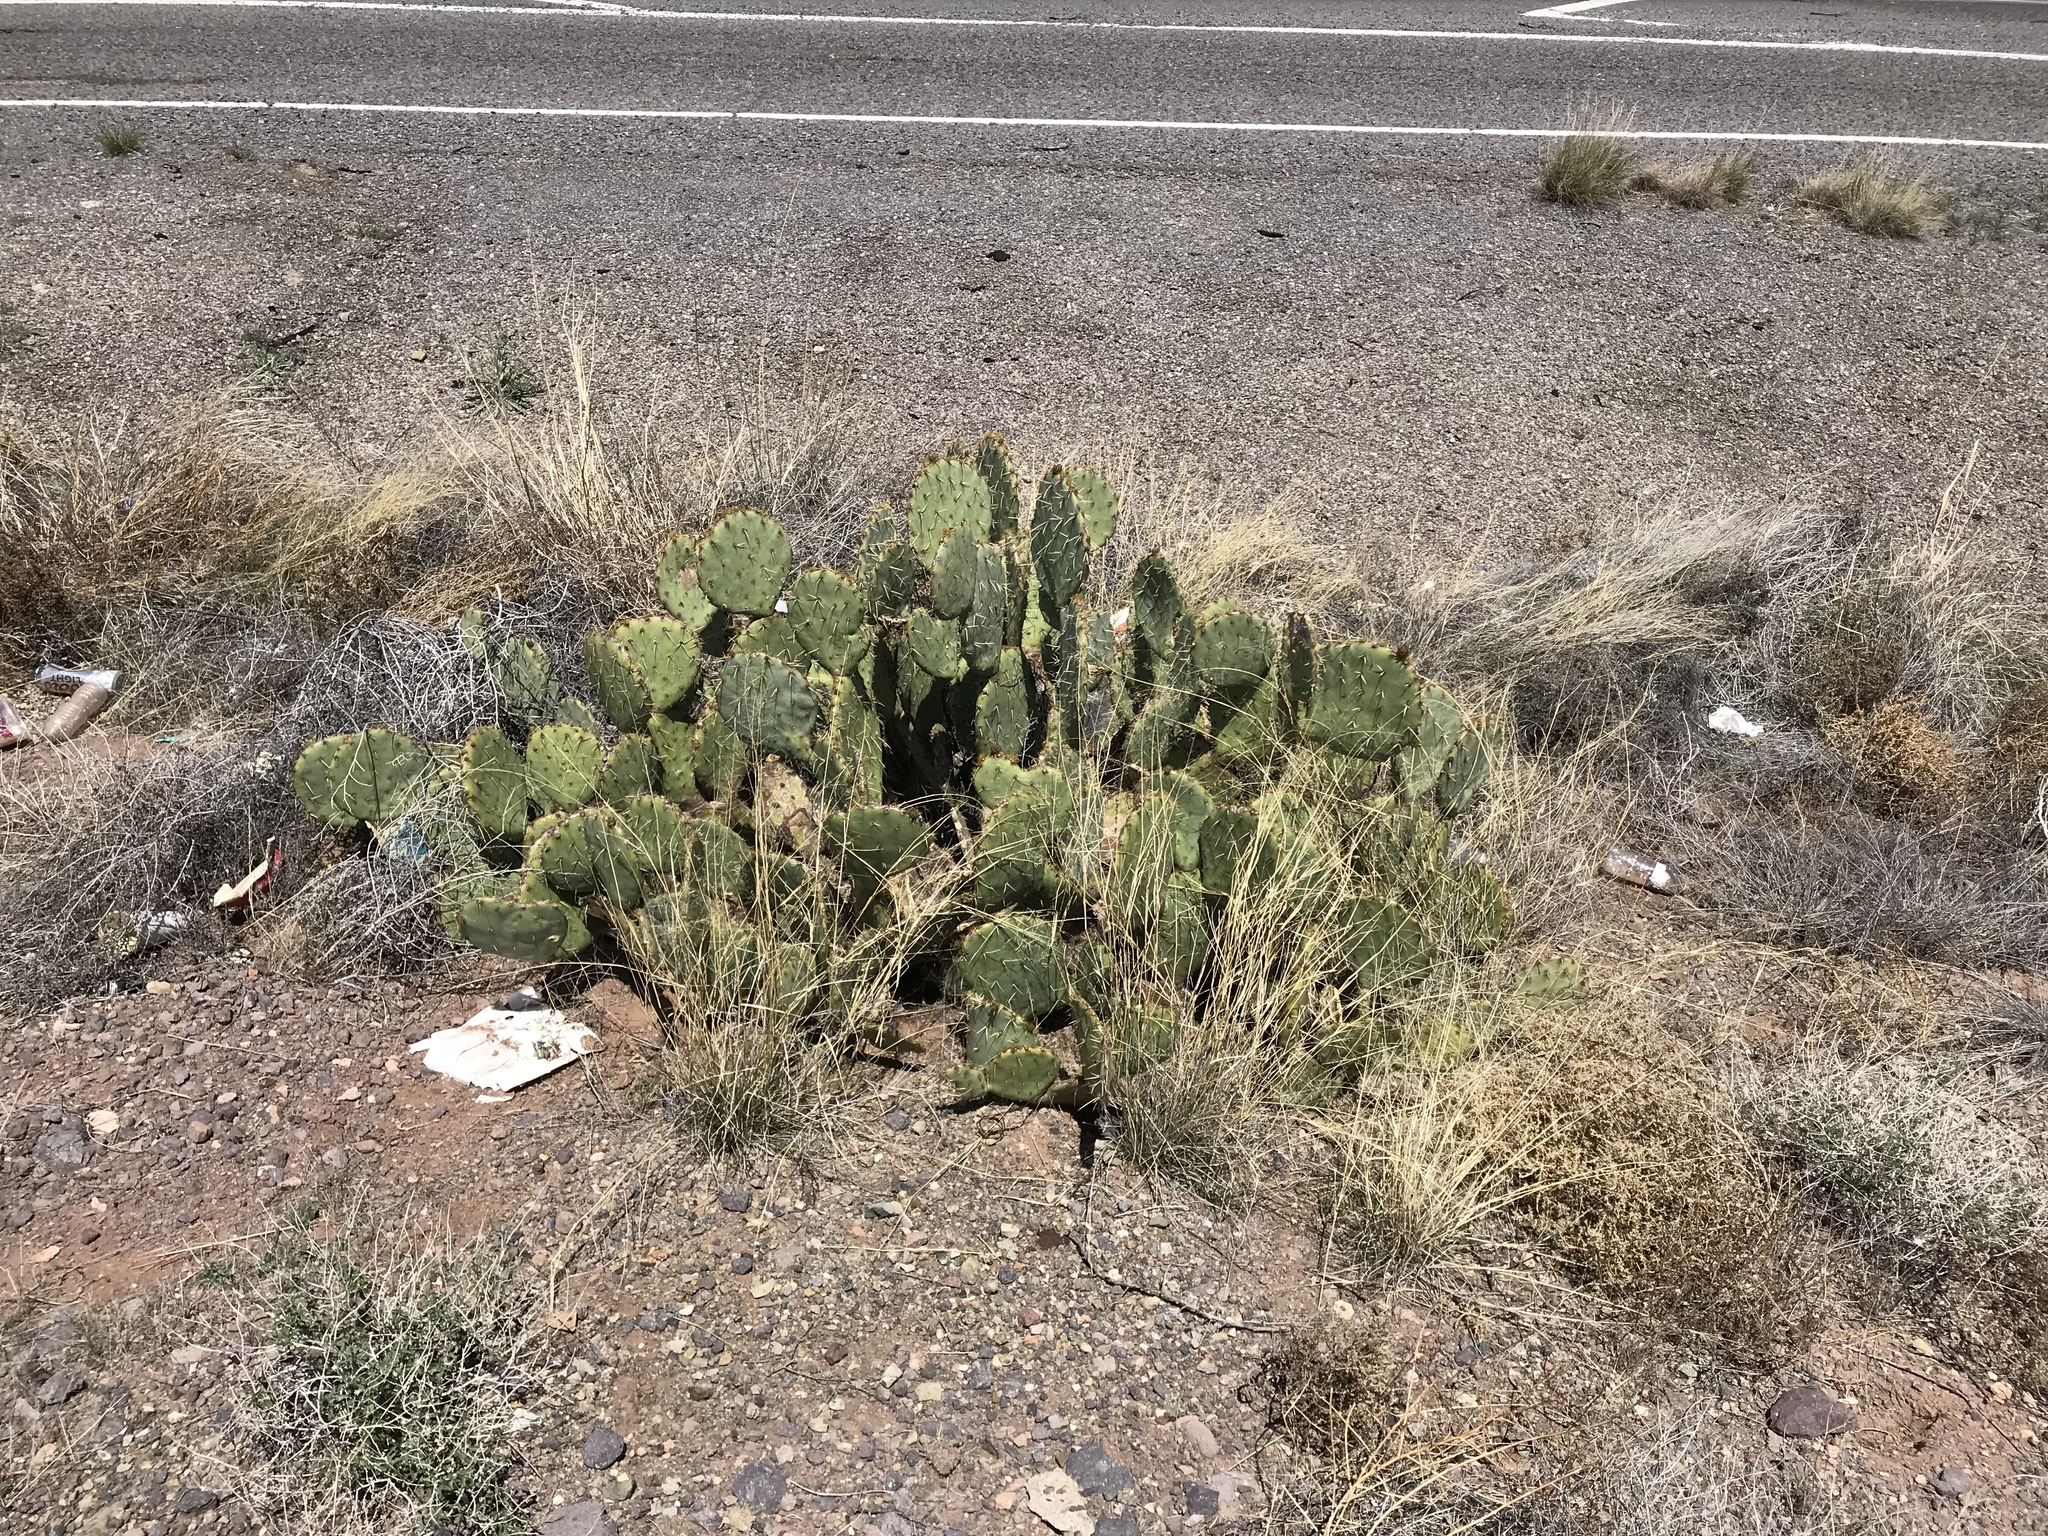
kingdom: Plantae
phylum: Tracheophyta
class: Magnoliopsida
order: Caryophyllales
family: Cactaceae
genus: Opuntia
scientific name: Opuntia engelmannii
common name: Cactus-apple
